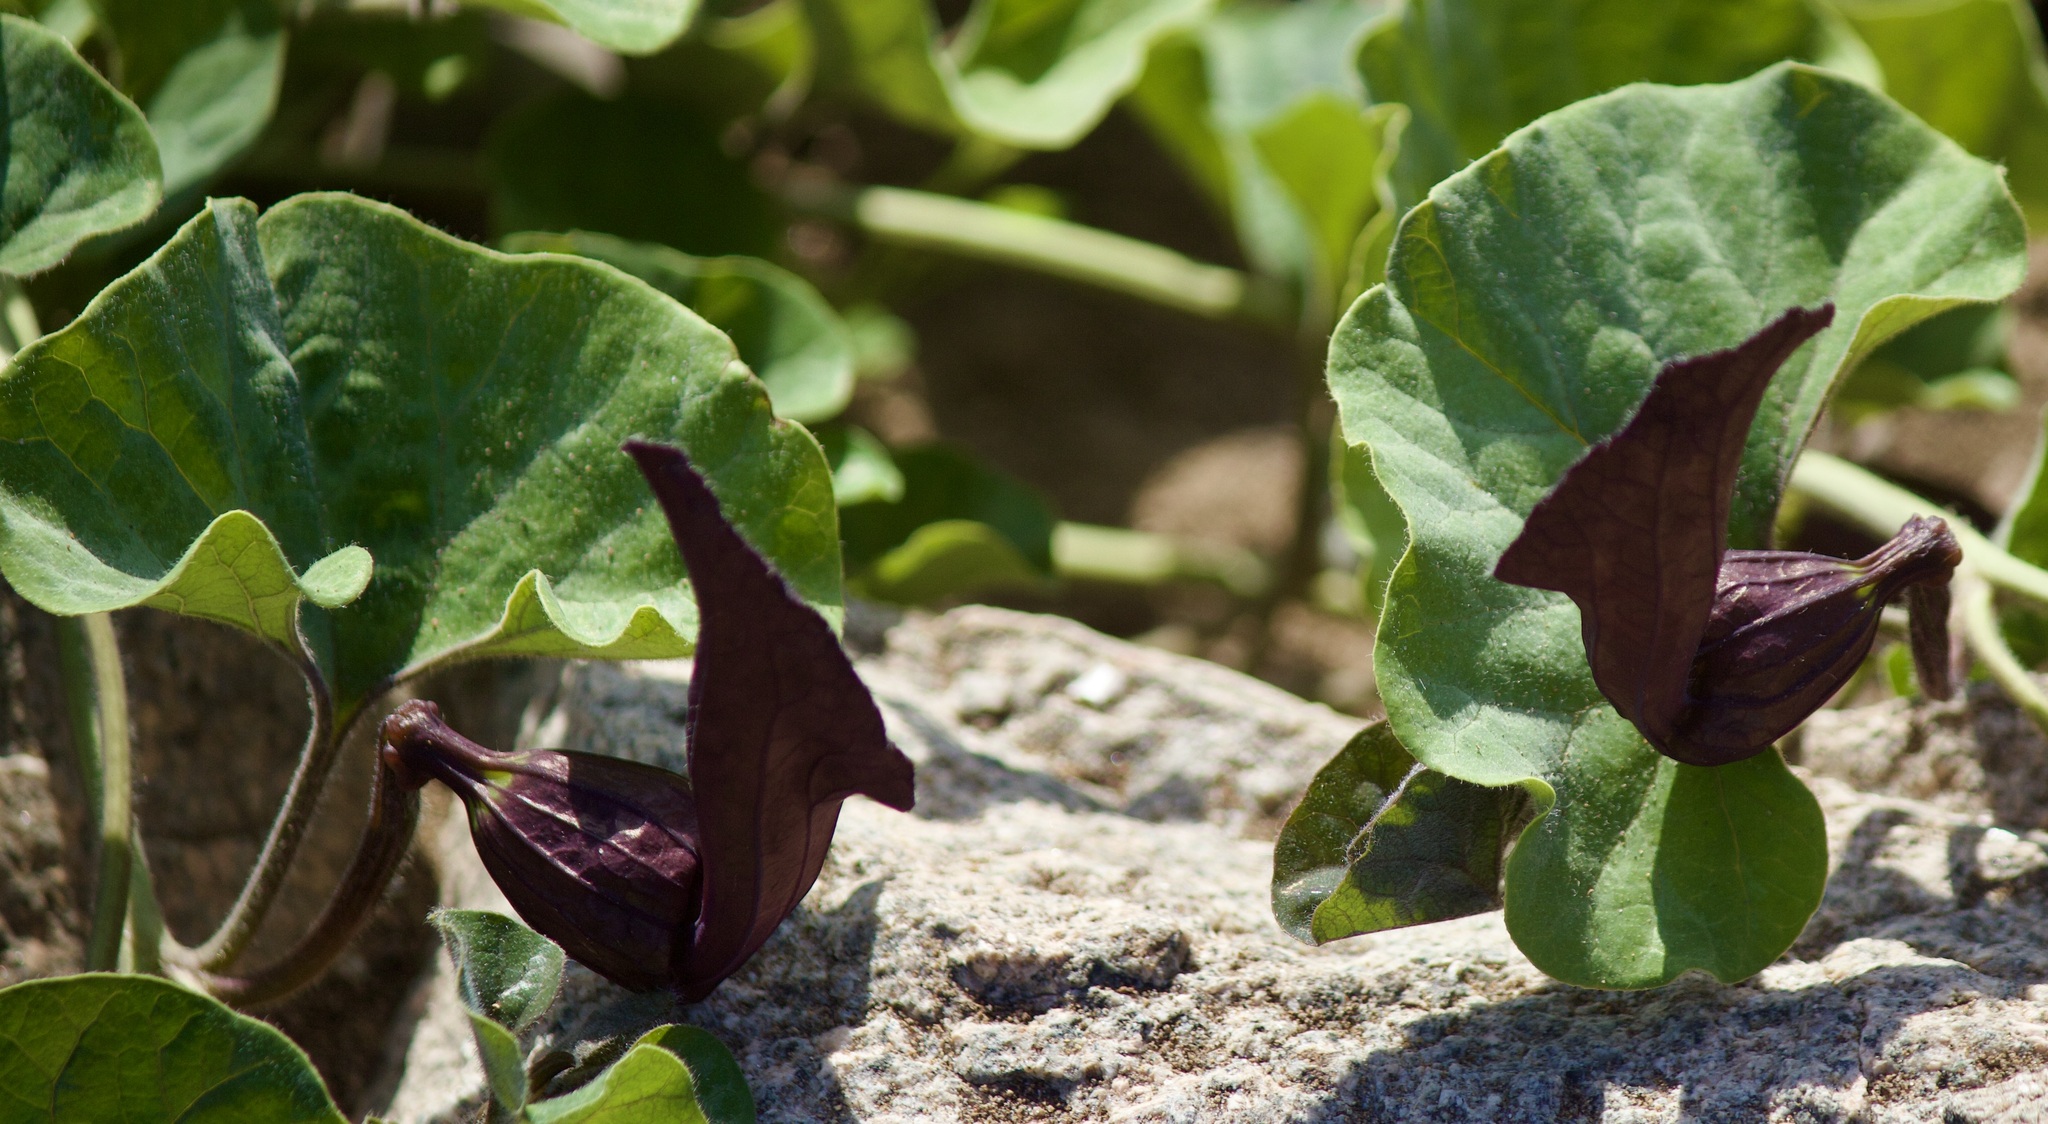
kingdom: Plantae
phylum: Tracheophyta
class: Magnoliopsida
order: Piperales
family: Aristolochiaceae
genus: Aristolochia
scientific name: Aristolochia chilensis
